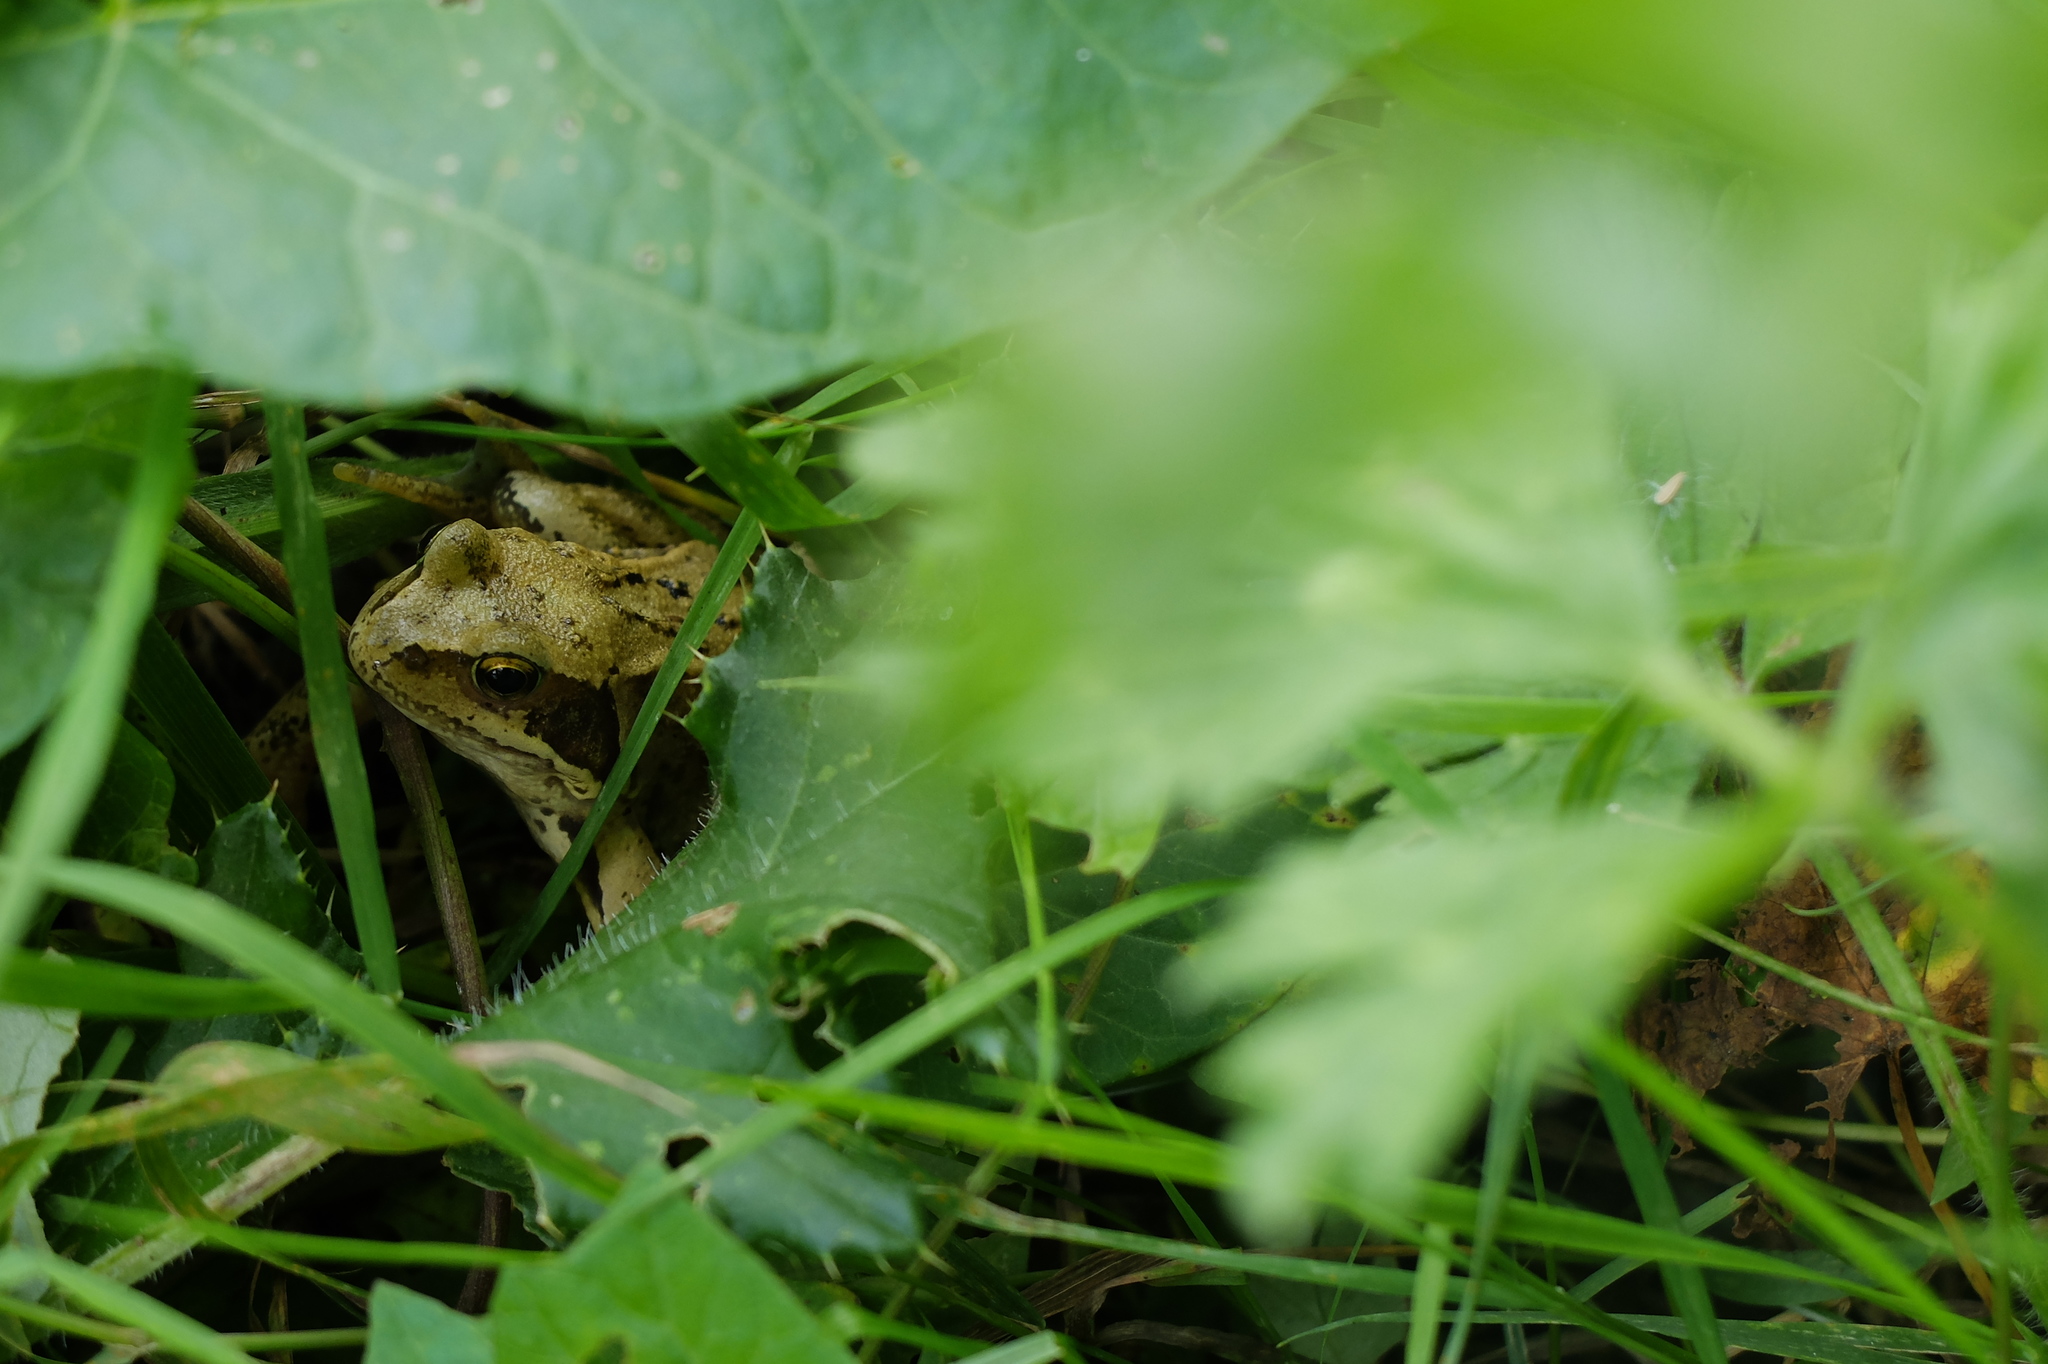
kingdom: Animalia
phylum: Chordata
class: Amphibia
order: Anura
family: Ranidae
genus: Rana
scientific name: Rana temporaria
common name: Common frog
